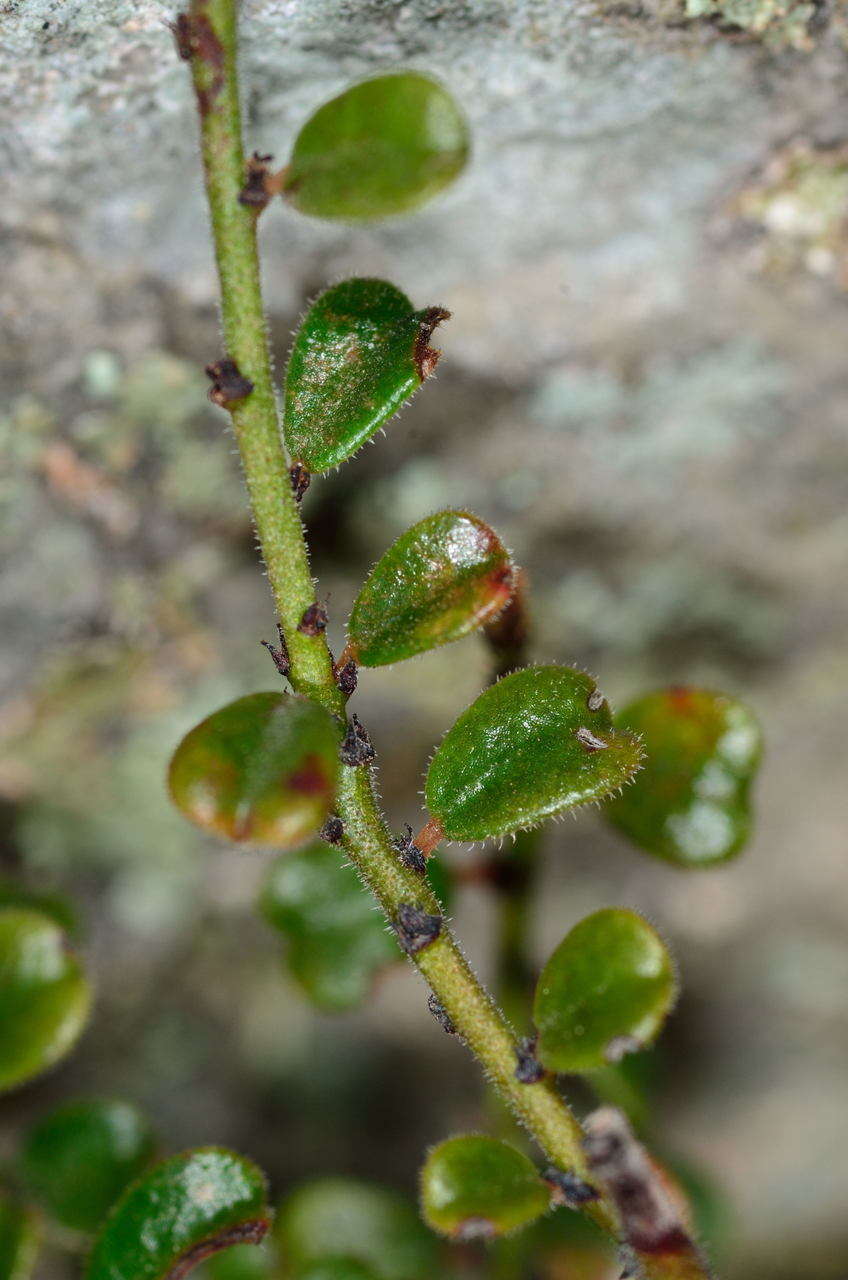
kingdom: Plantae
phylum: Tracheophyta
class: Magnoliopsida
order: Malpighiales
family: Phyllanthaceae
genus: Phyllanthus
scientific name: Phyllanthus hirtellus
